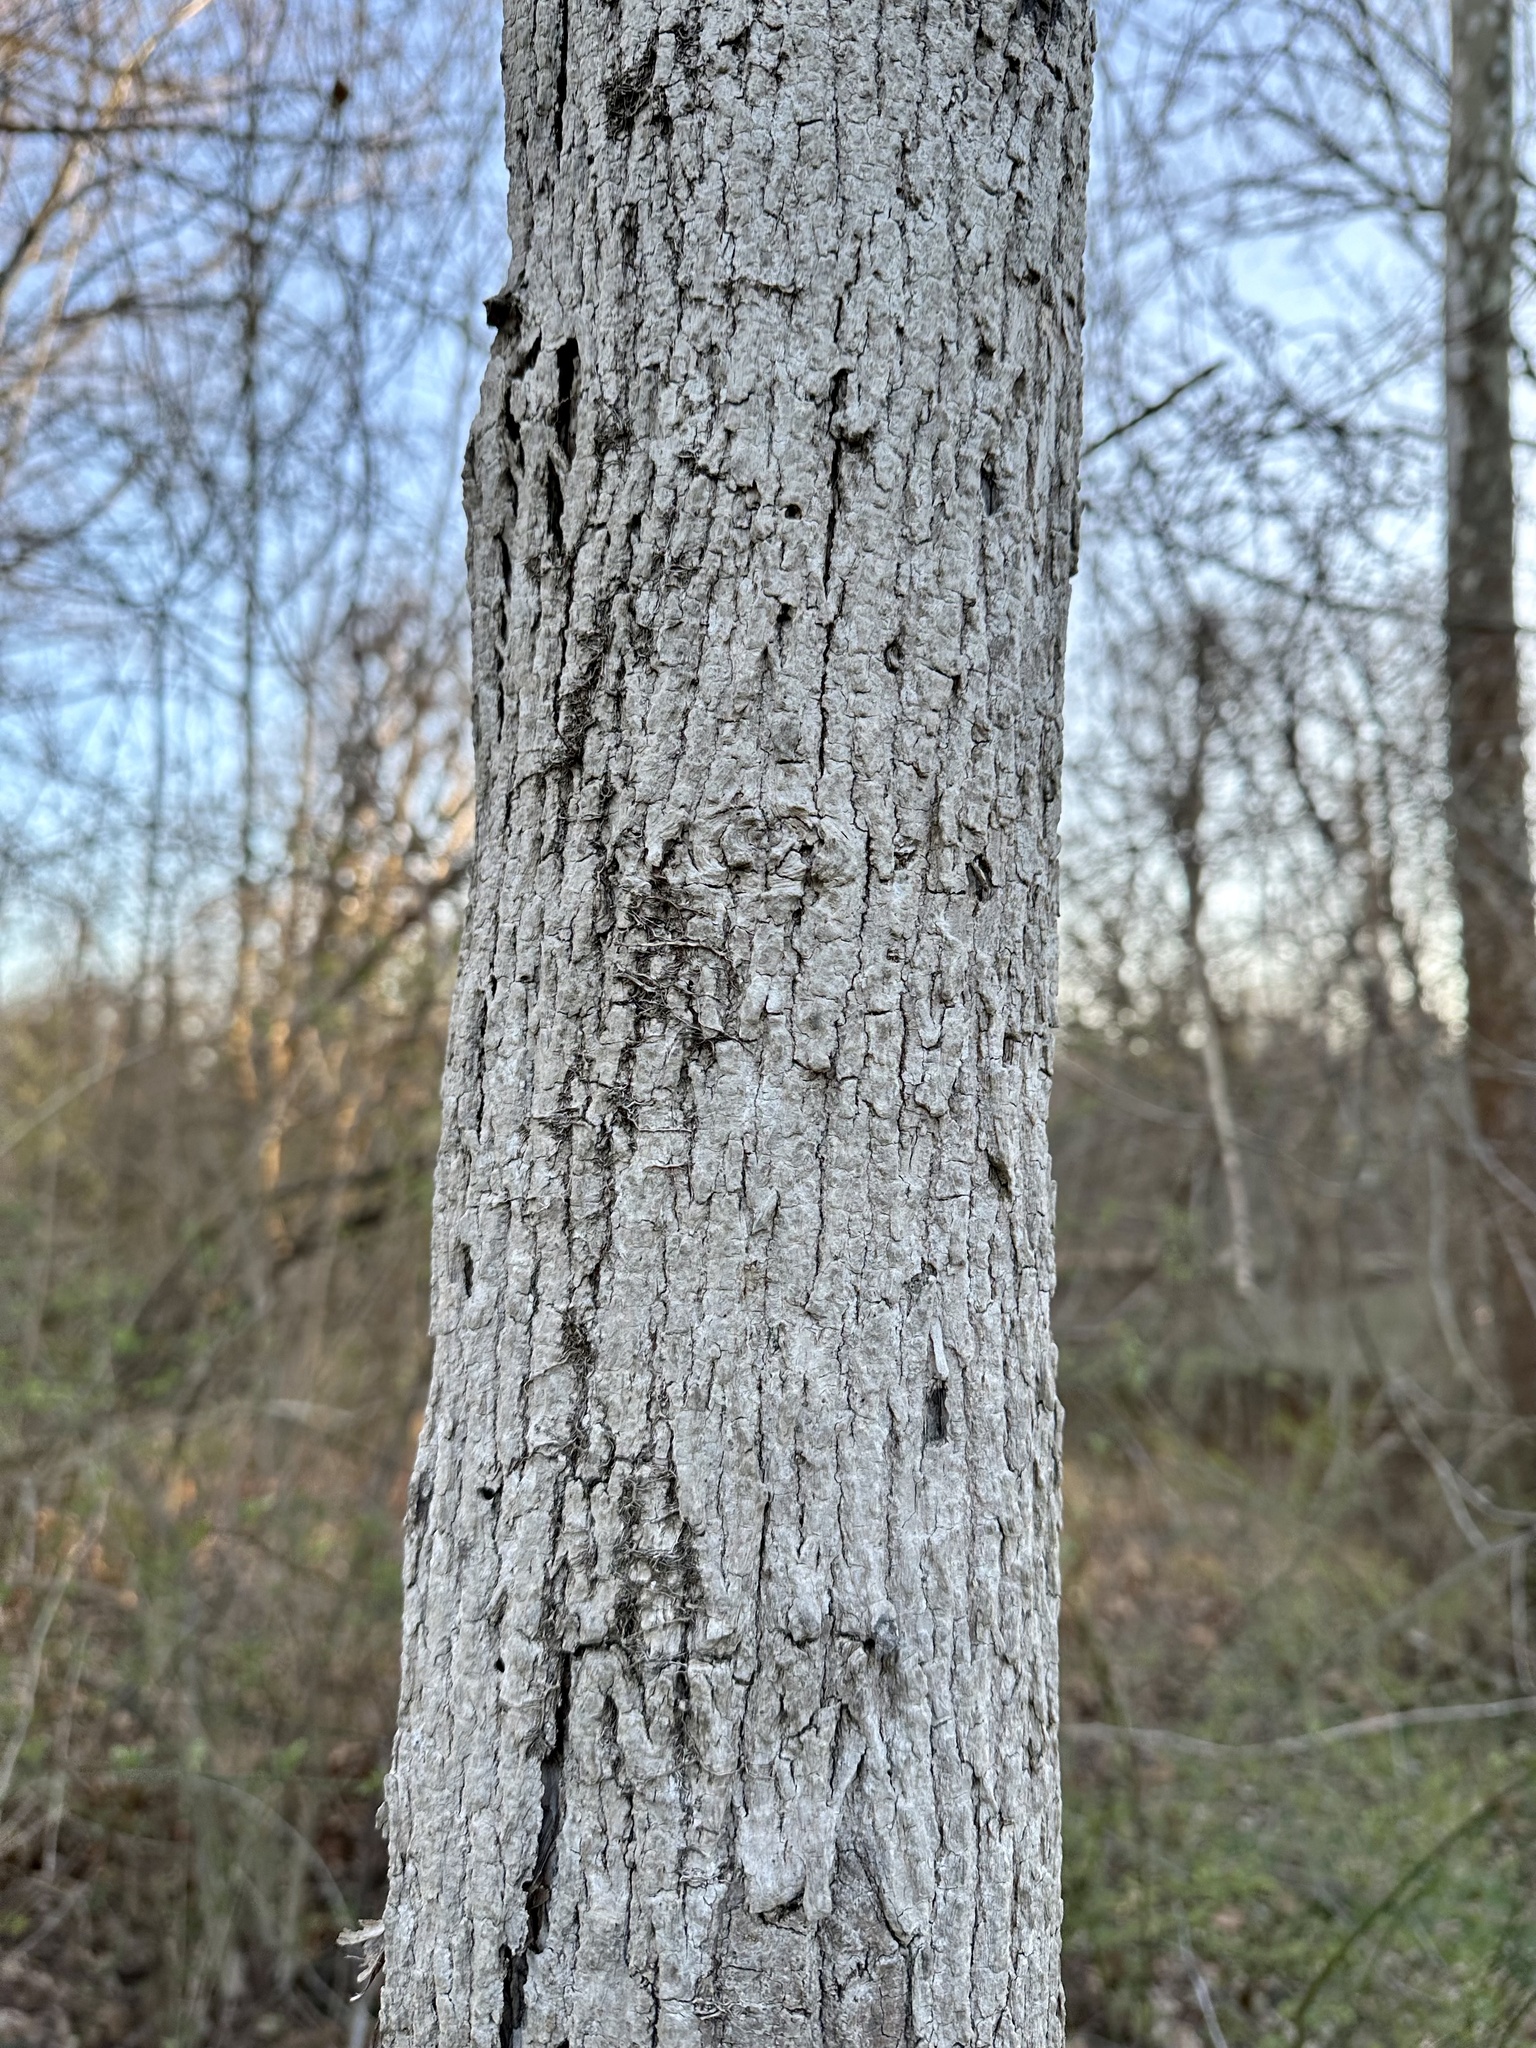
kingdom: Animalia
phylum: Arthropoda
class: Insecta
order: Coleoptera
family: Buprestidae
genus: Agrilus
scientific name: Agrilus planipennis
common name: Emerald ash borer
